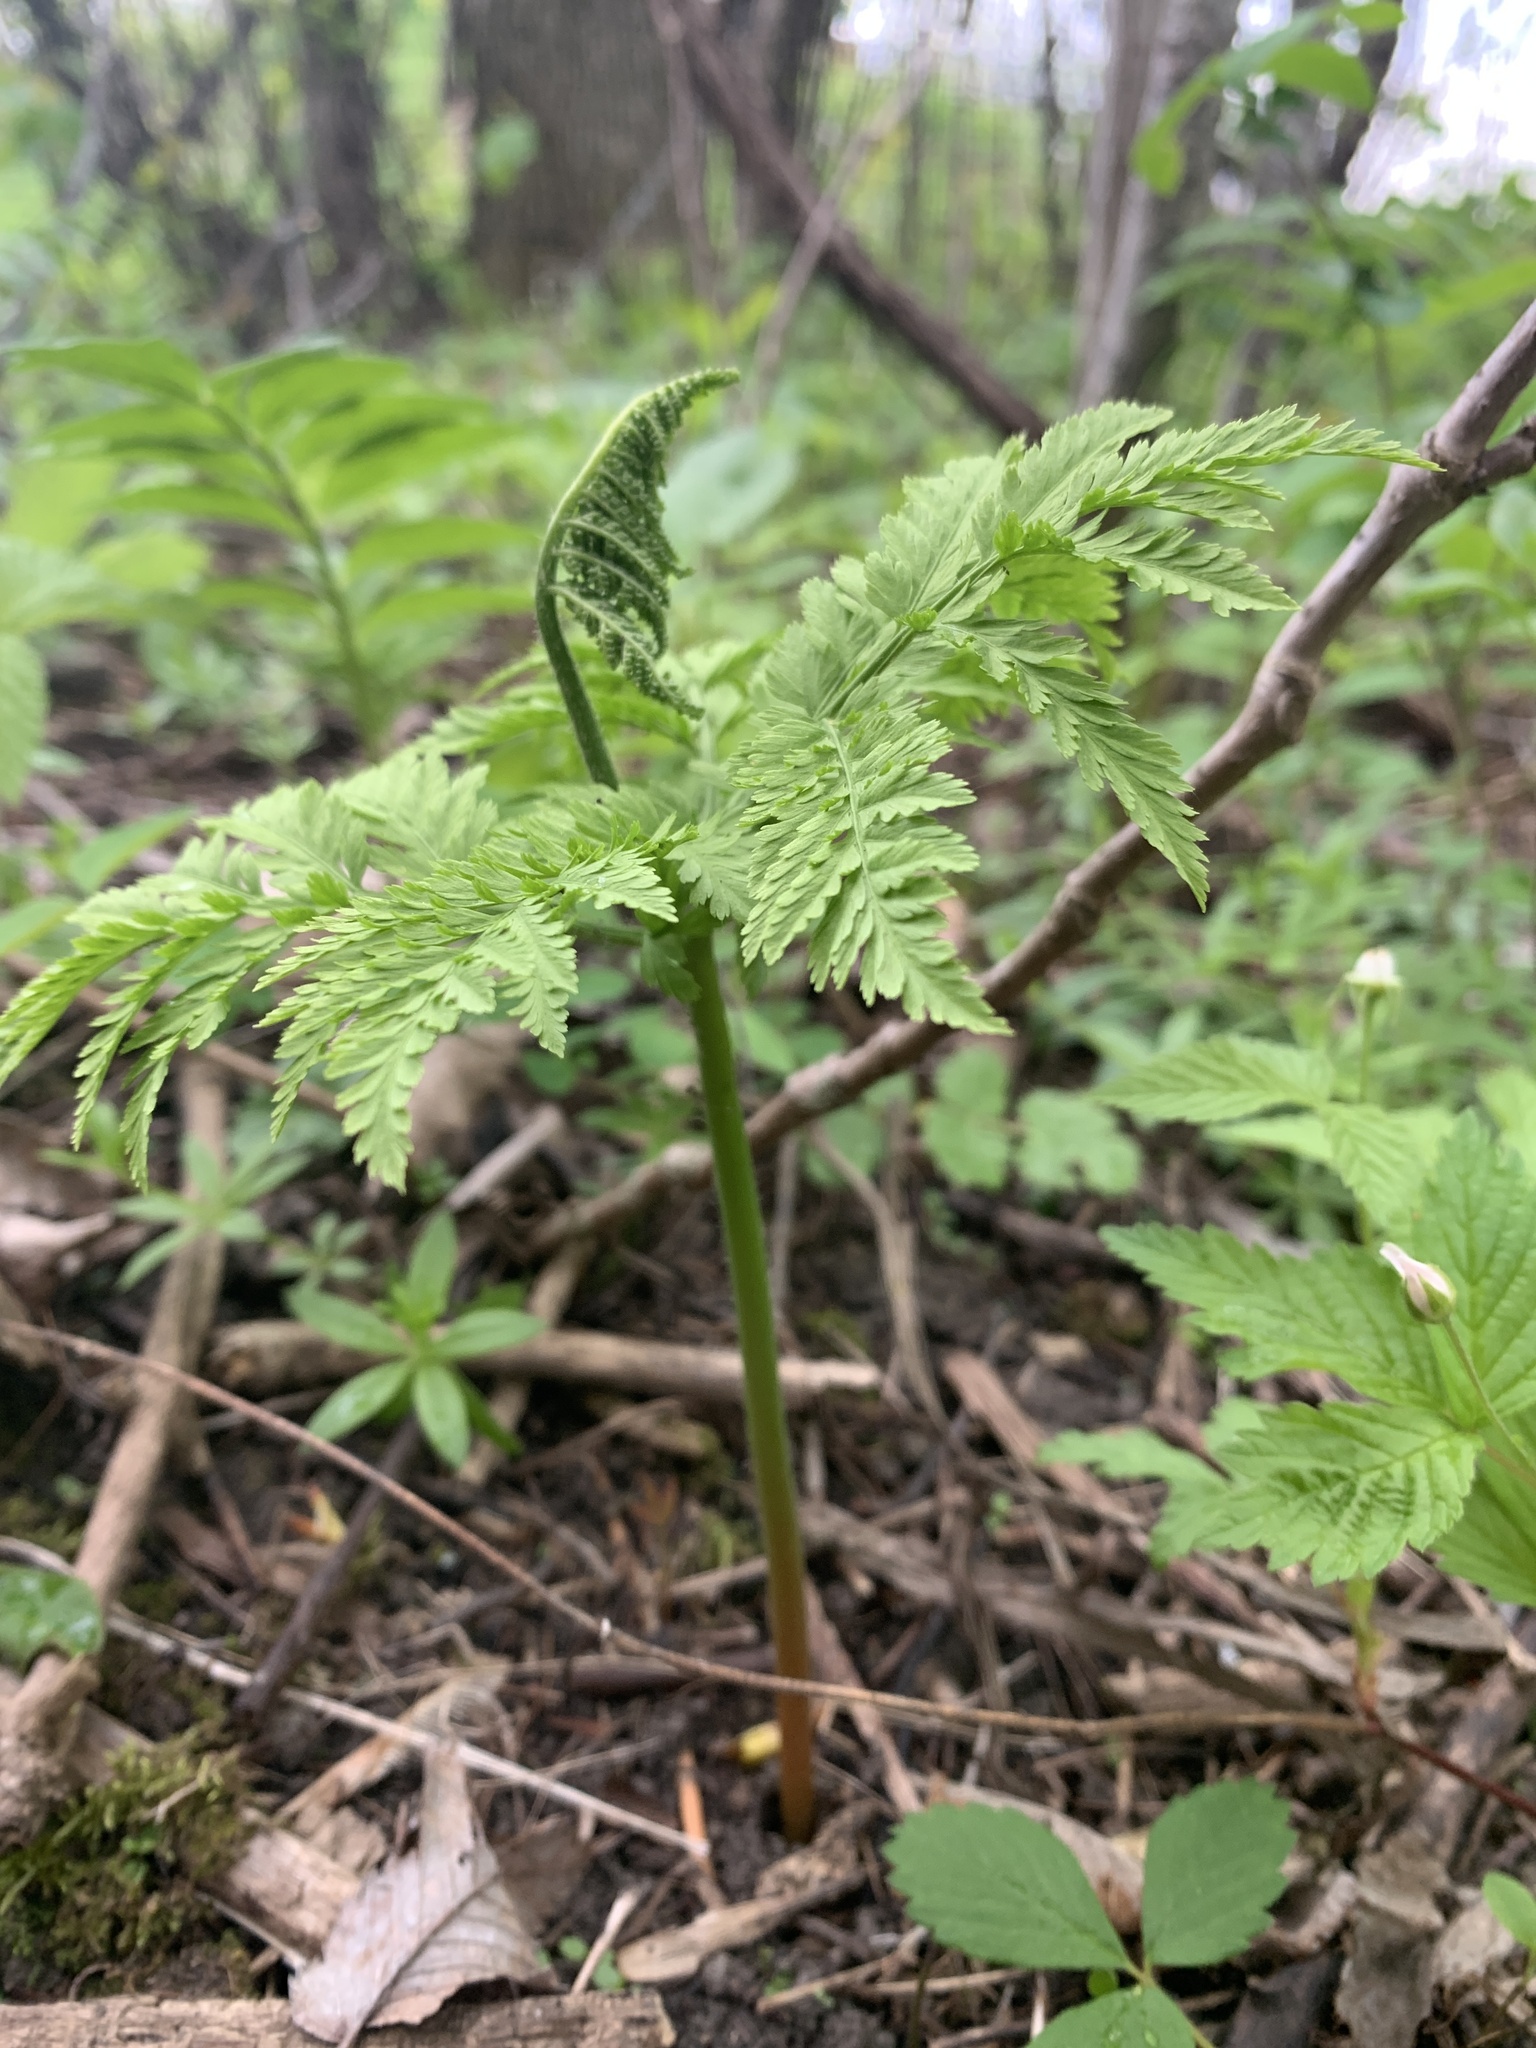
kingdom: Plantae
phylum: Tracheophyta
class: Polypodiopsida
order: Ophioglossales
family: Ophioglossaceae
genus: Botrypus
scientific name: Botrypus virginianus
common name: Common grapefern
